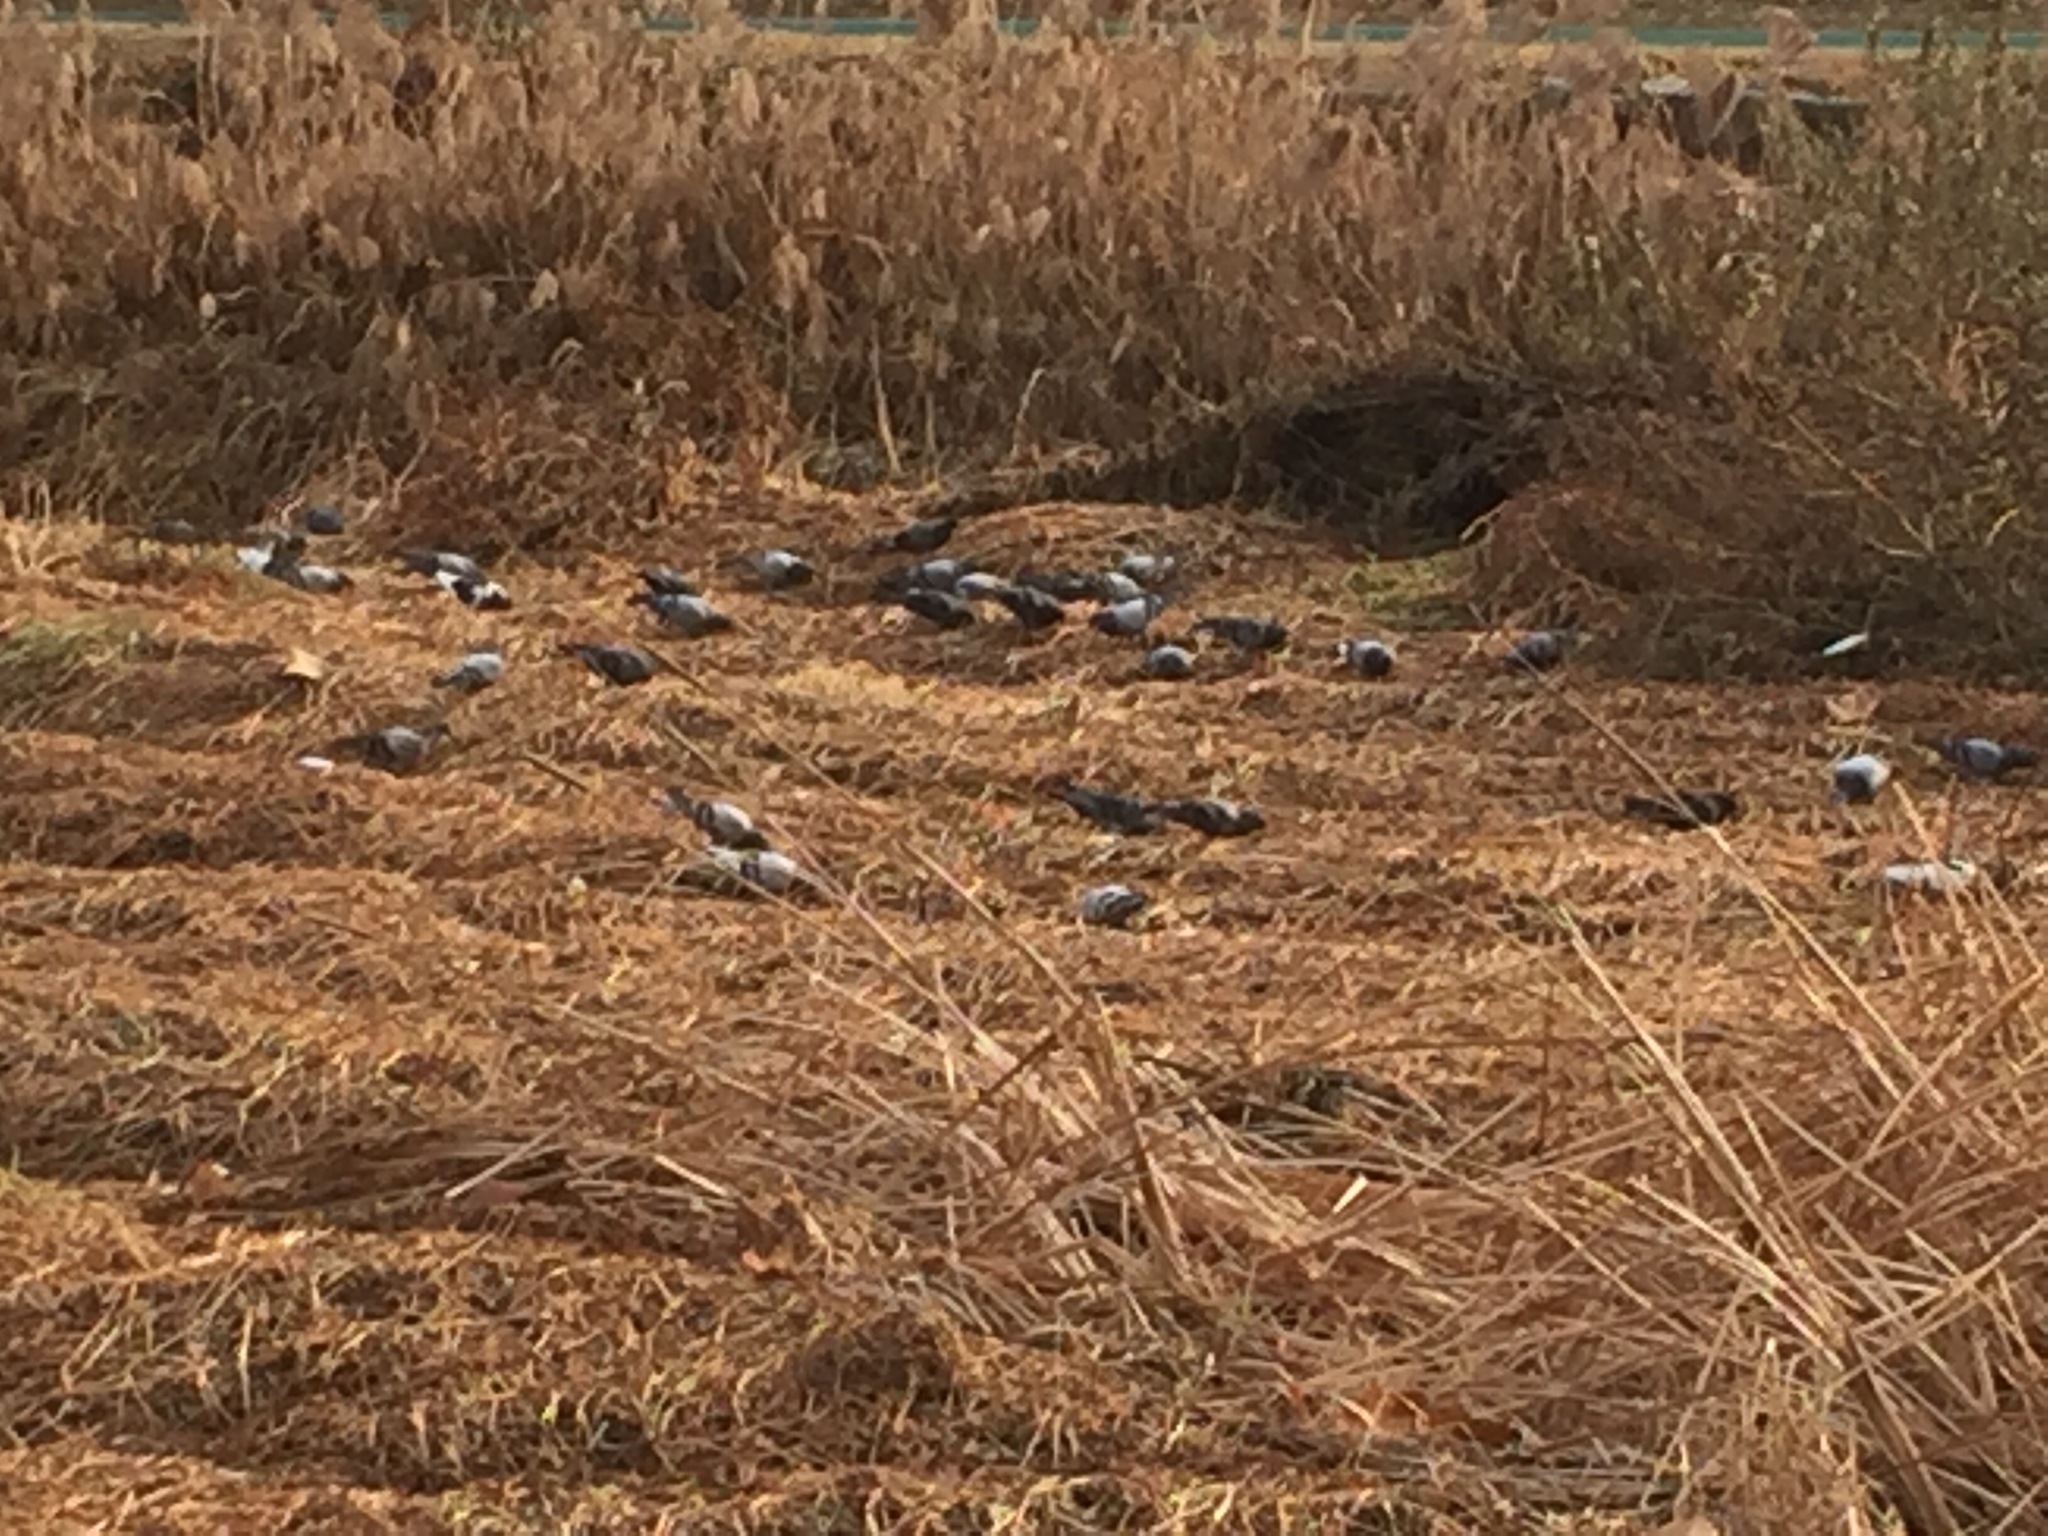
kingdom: Animalia
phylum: Chordata
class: Aves
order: Columbiformes
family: Columbidae
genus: Columba
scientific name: Columba livia
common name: Rock pigeon
